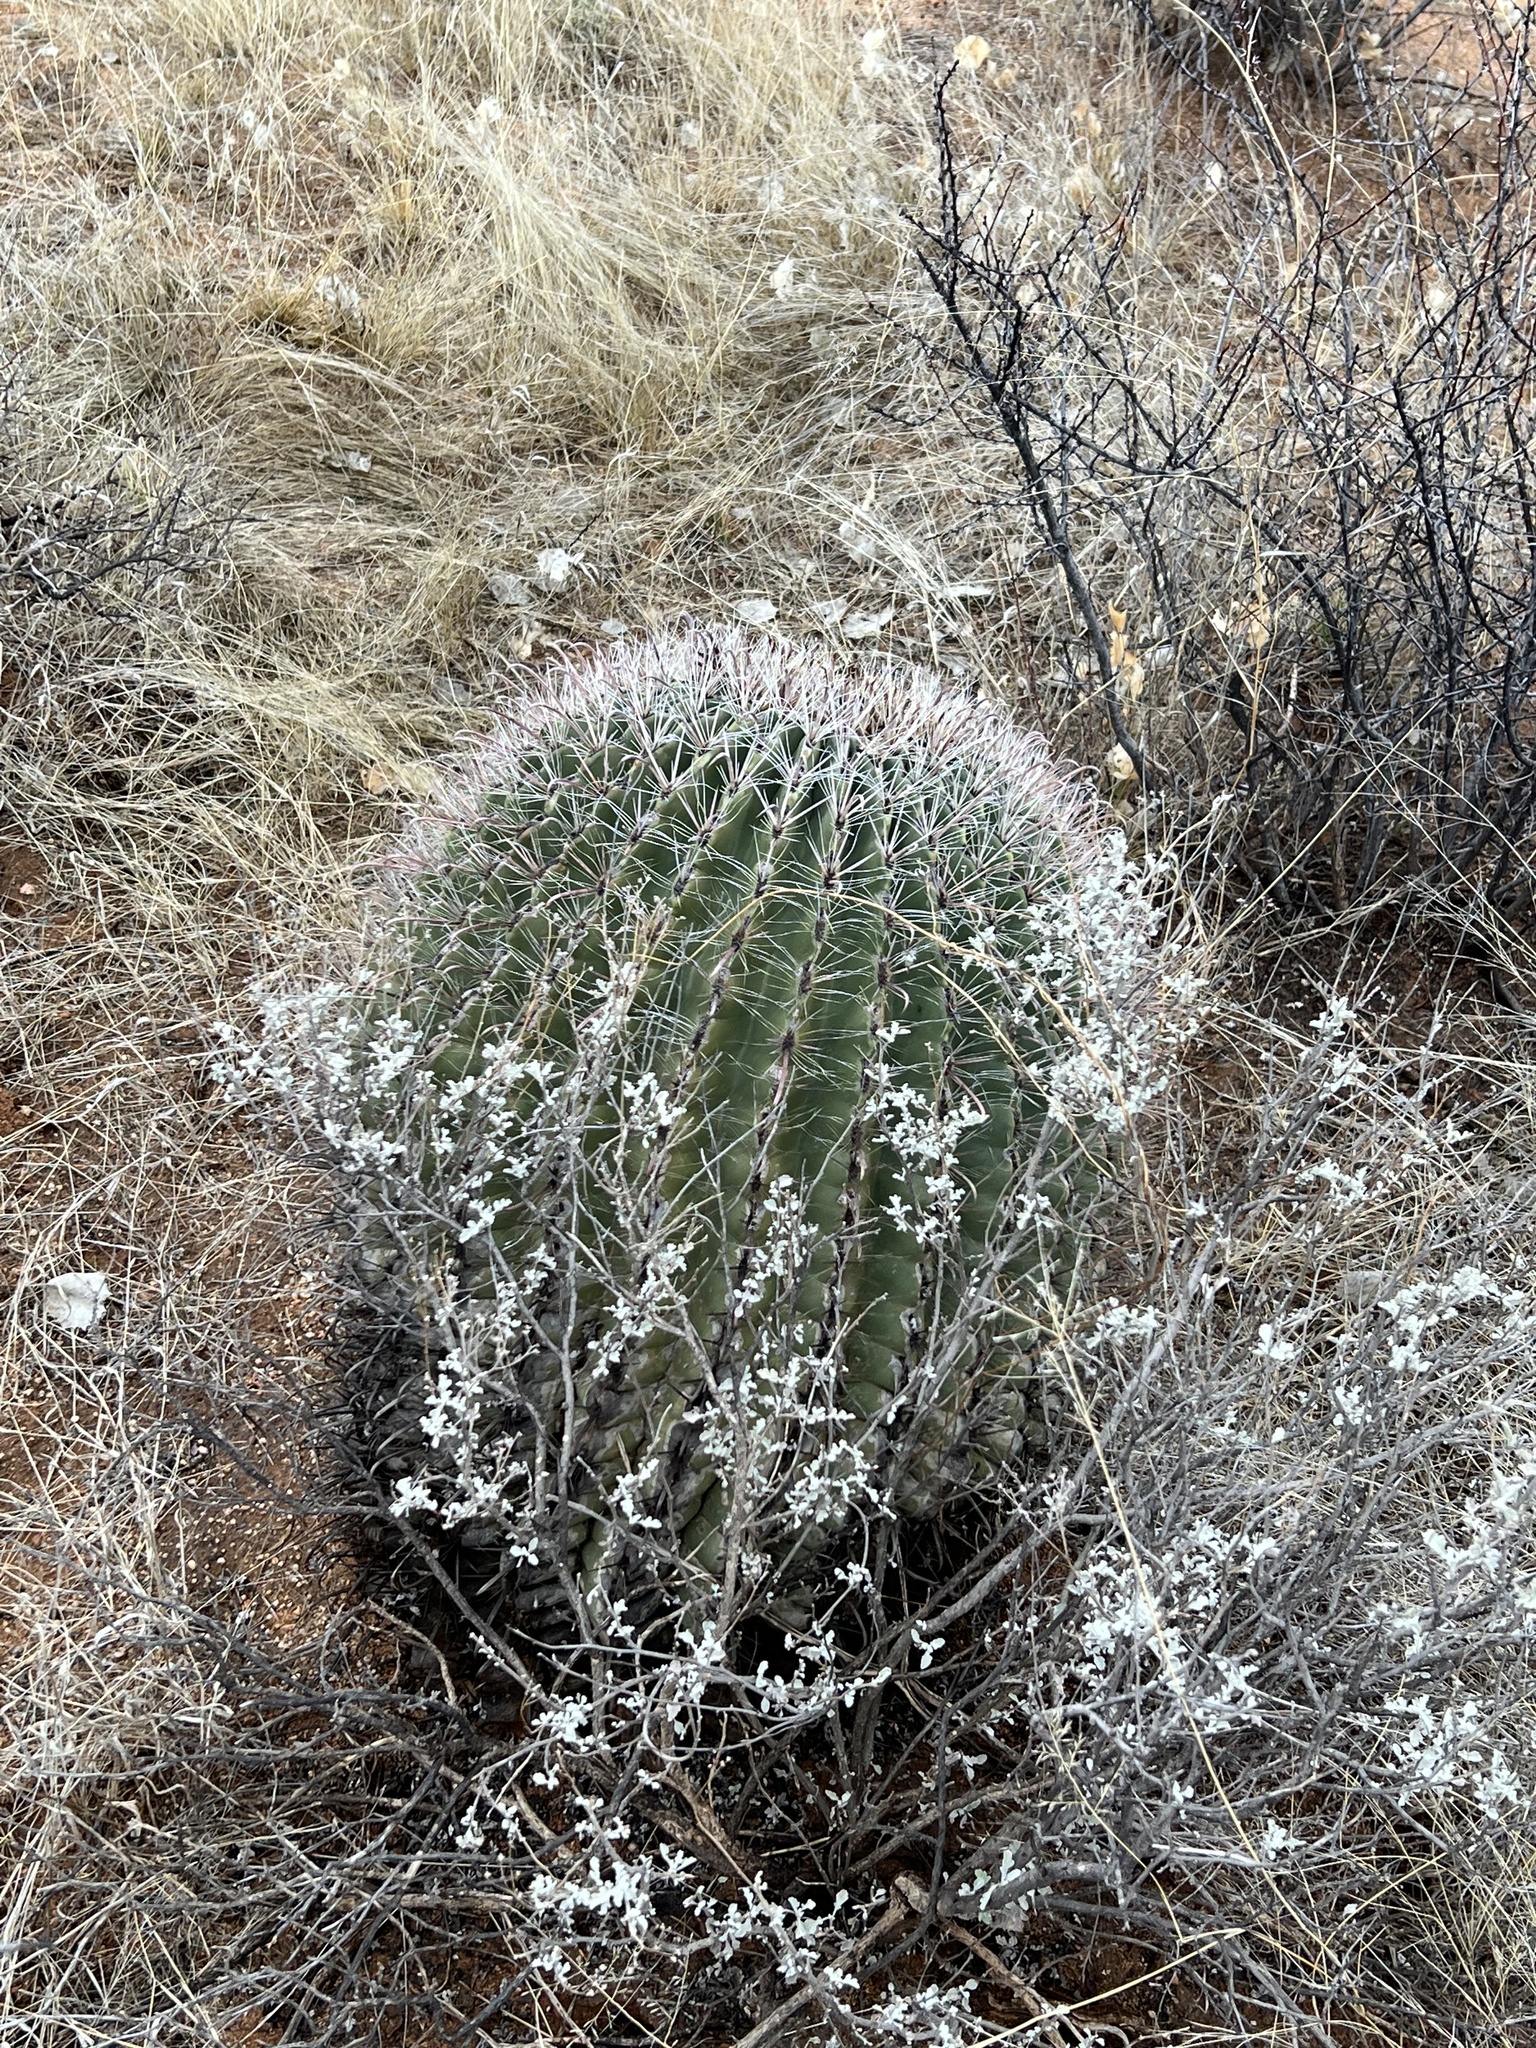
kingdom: Plantae
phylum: Tracheophyta
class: Magnoliopsida
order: Caryophyllales
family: Cactaceae
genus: Ferocactus
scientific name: Ferocactus wislizeni
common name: Candy barrel cactus
